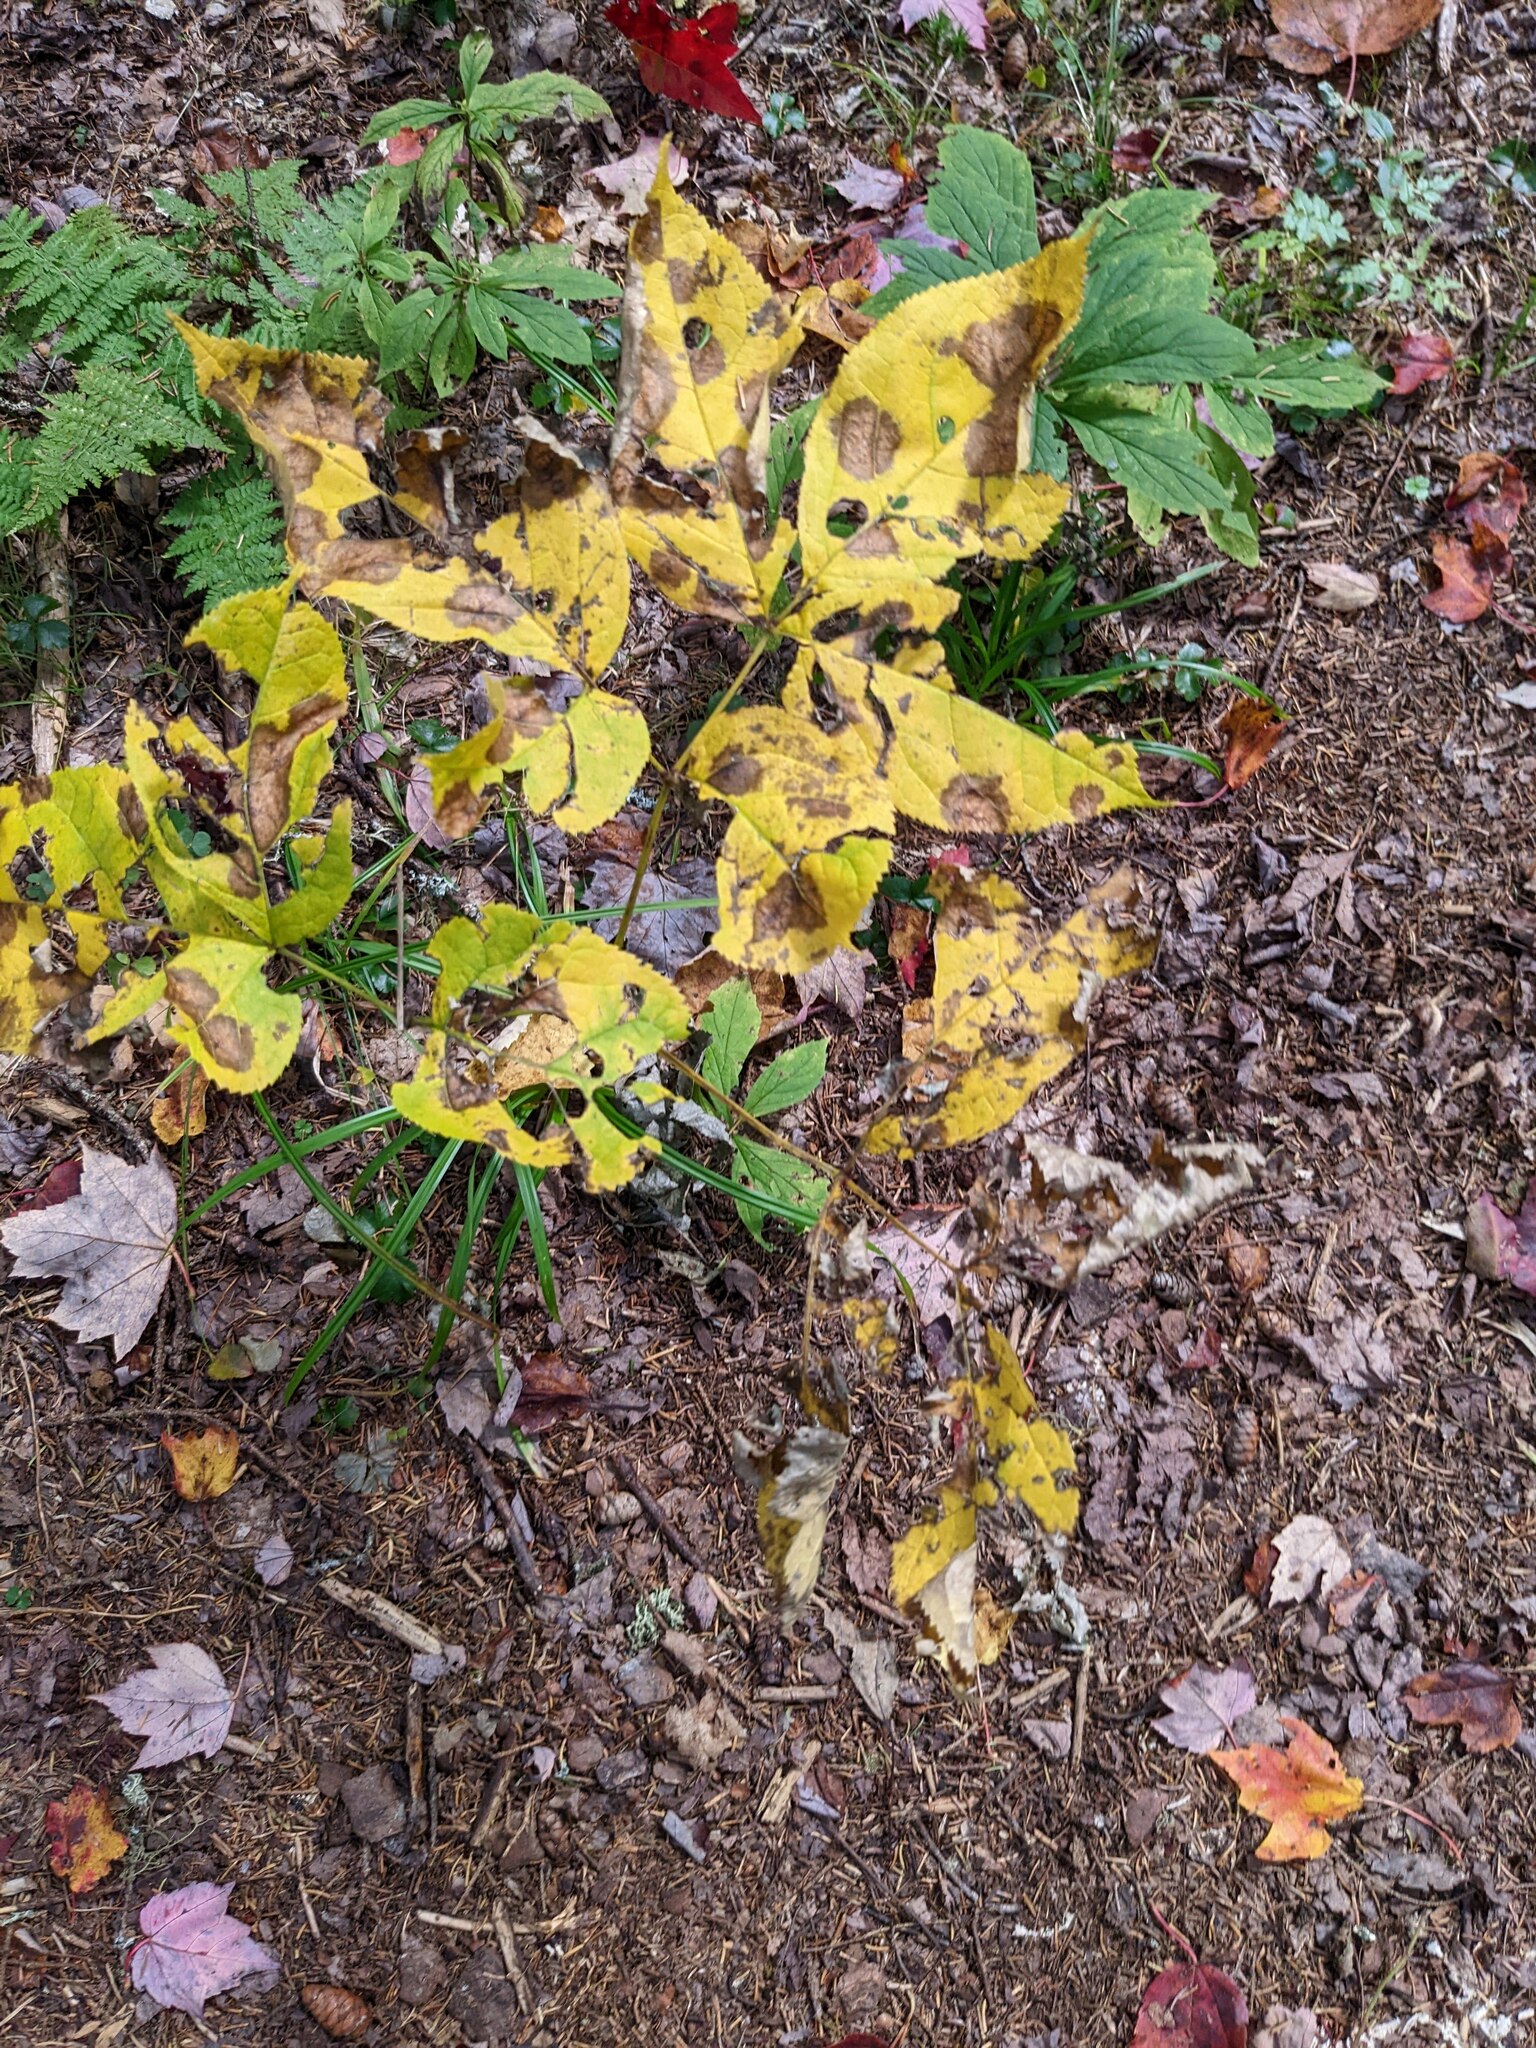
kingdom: Plantae
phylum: Tracheophyta
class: Magnoliopsida
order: Apiales
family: Araliaceae
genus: Aralia
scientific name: Aralia nudicaulis
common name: Wild sarsaparilla
